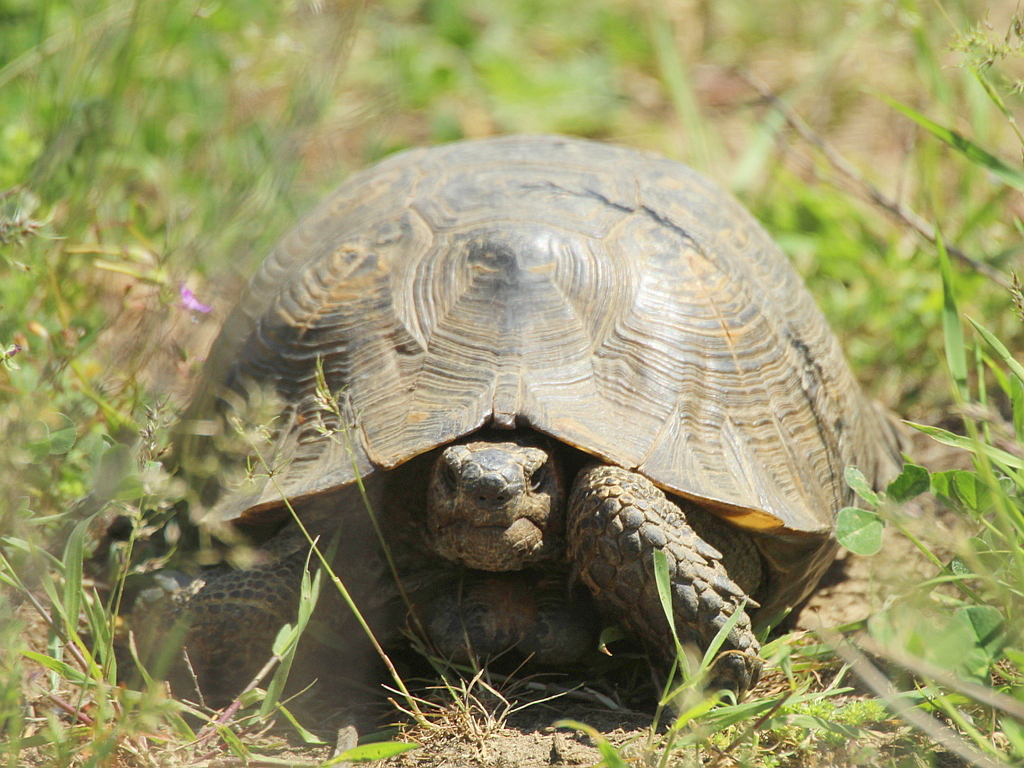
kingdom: Animalia
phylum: Chordata
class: Testudines
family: Testudinidae
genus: Testudo
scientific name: Testudo graeca
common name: Common tortoise
